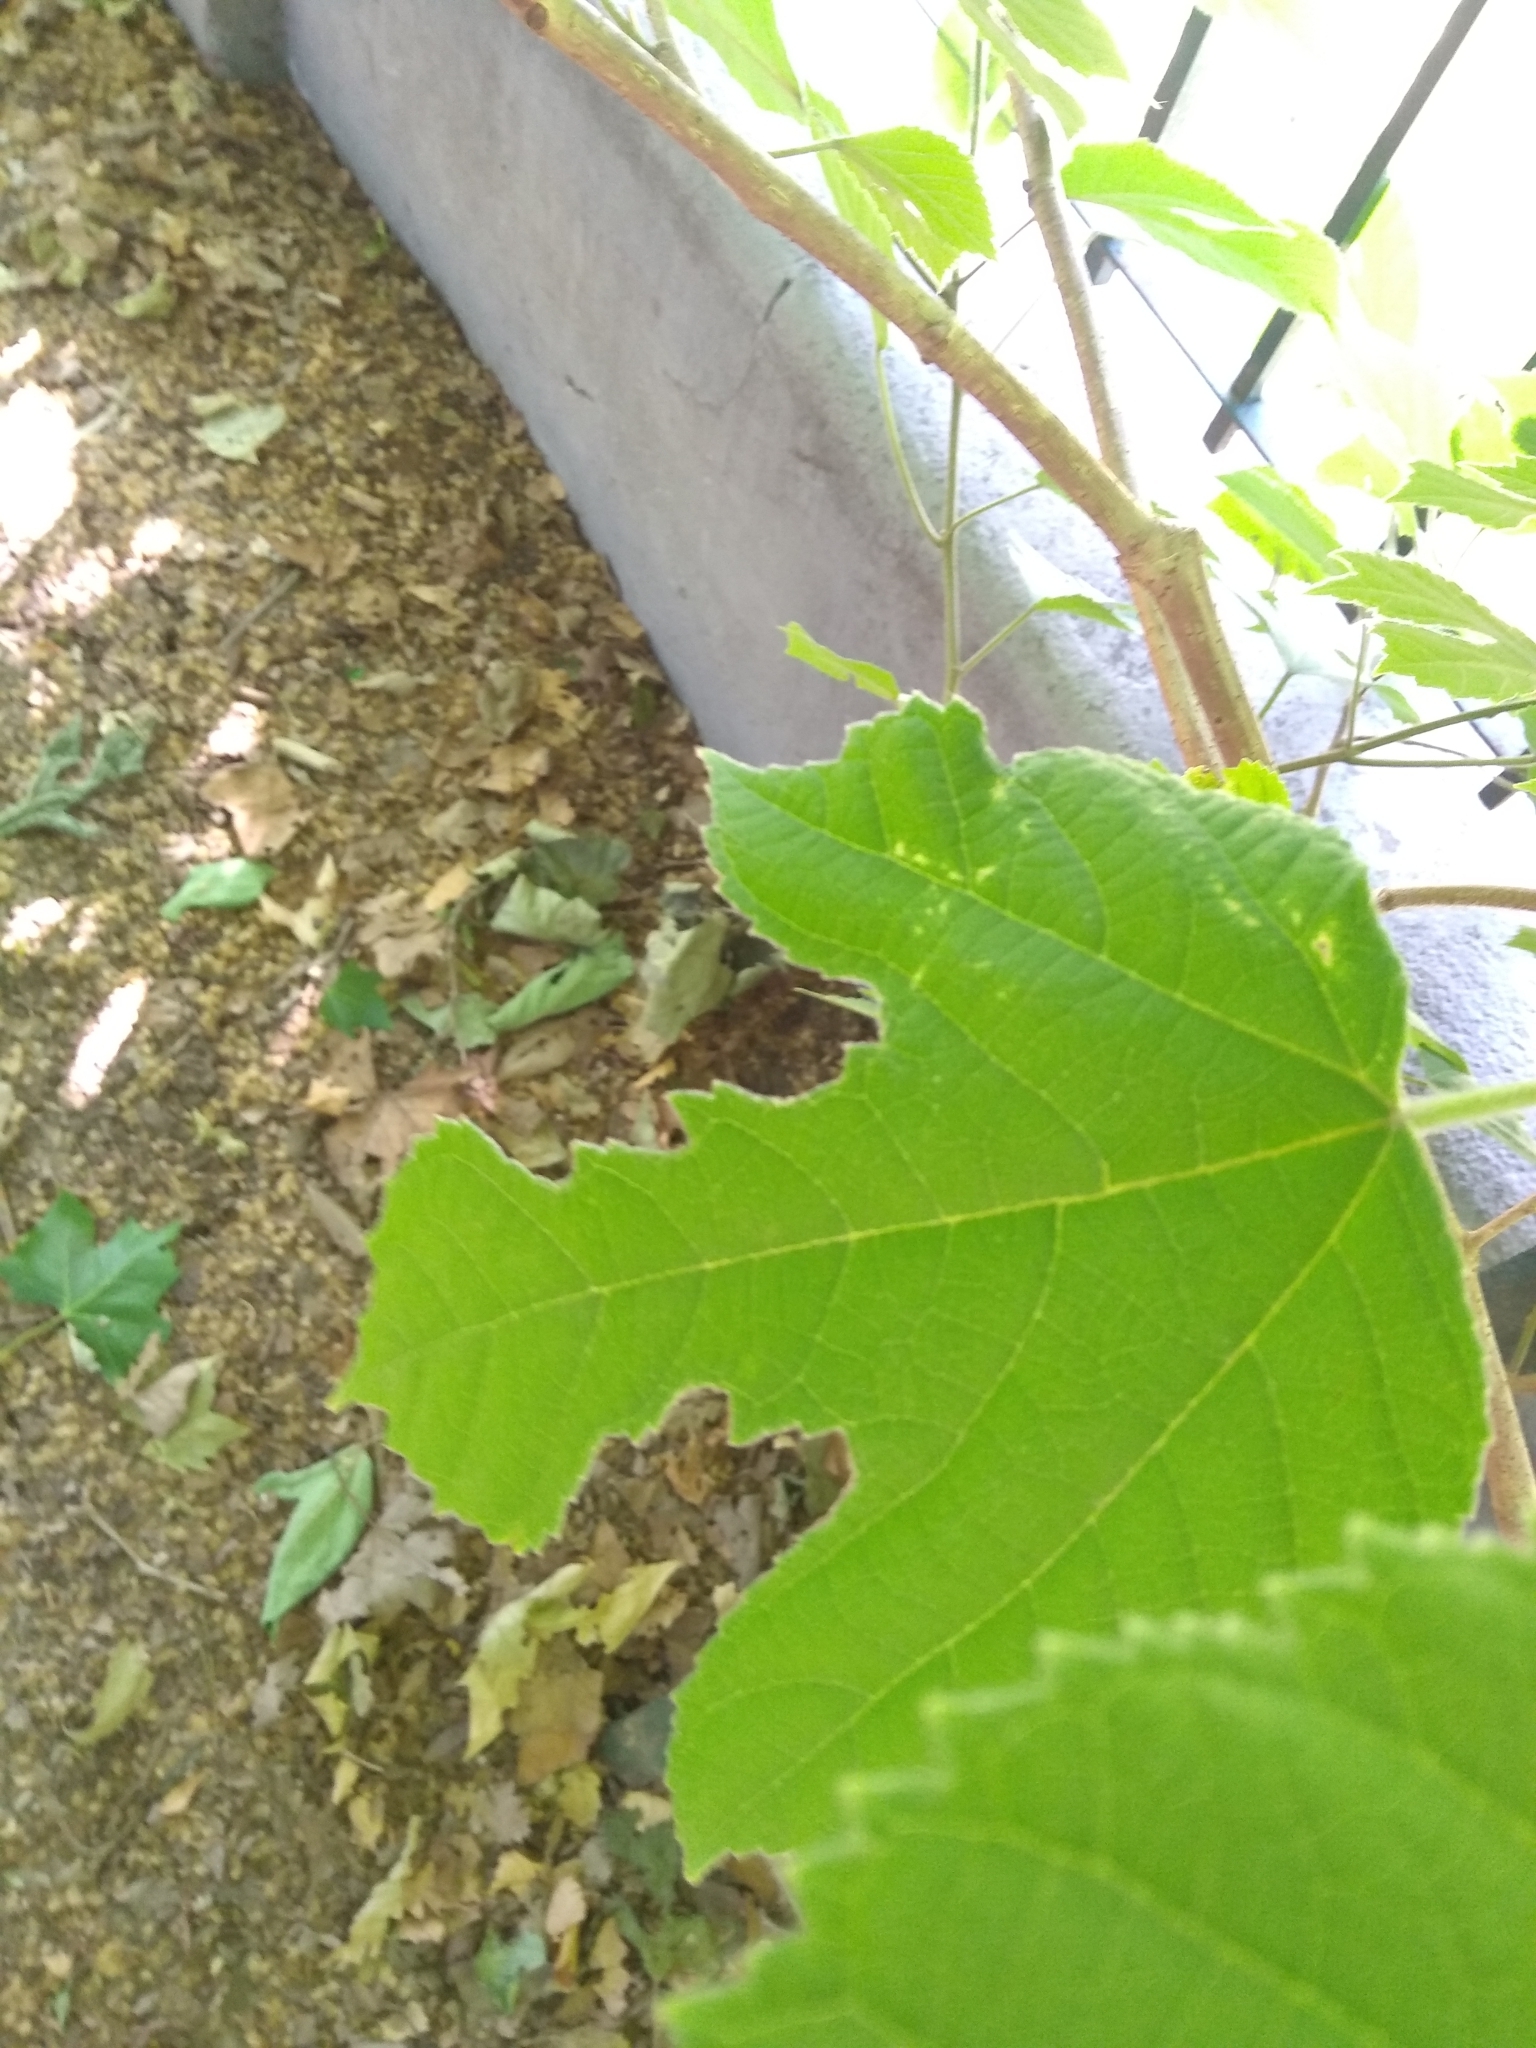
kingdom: Plantae
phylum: Tracheophyta
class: Magnoliopsida
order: Rosales
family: Moraceae
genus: Broussonetia
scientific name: Broussonetia papyrifera
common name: Paper mulberry
